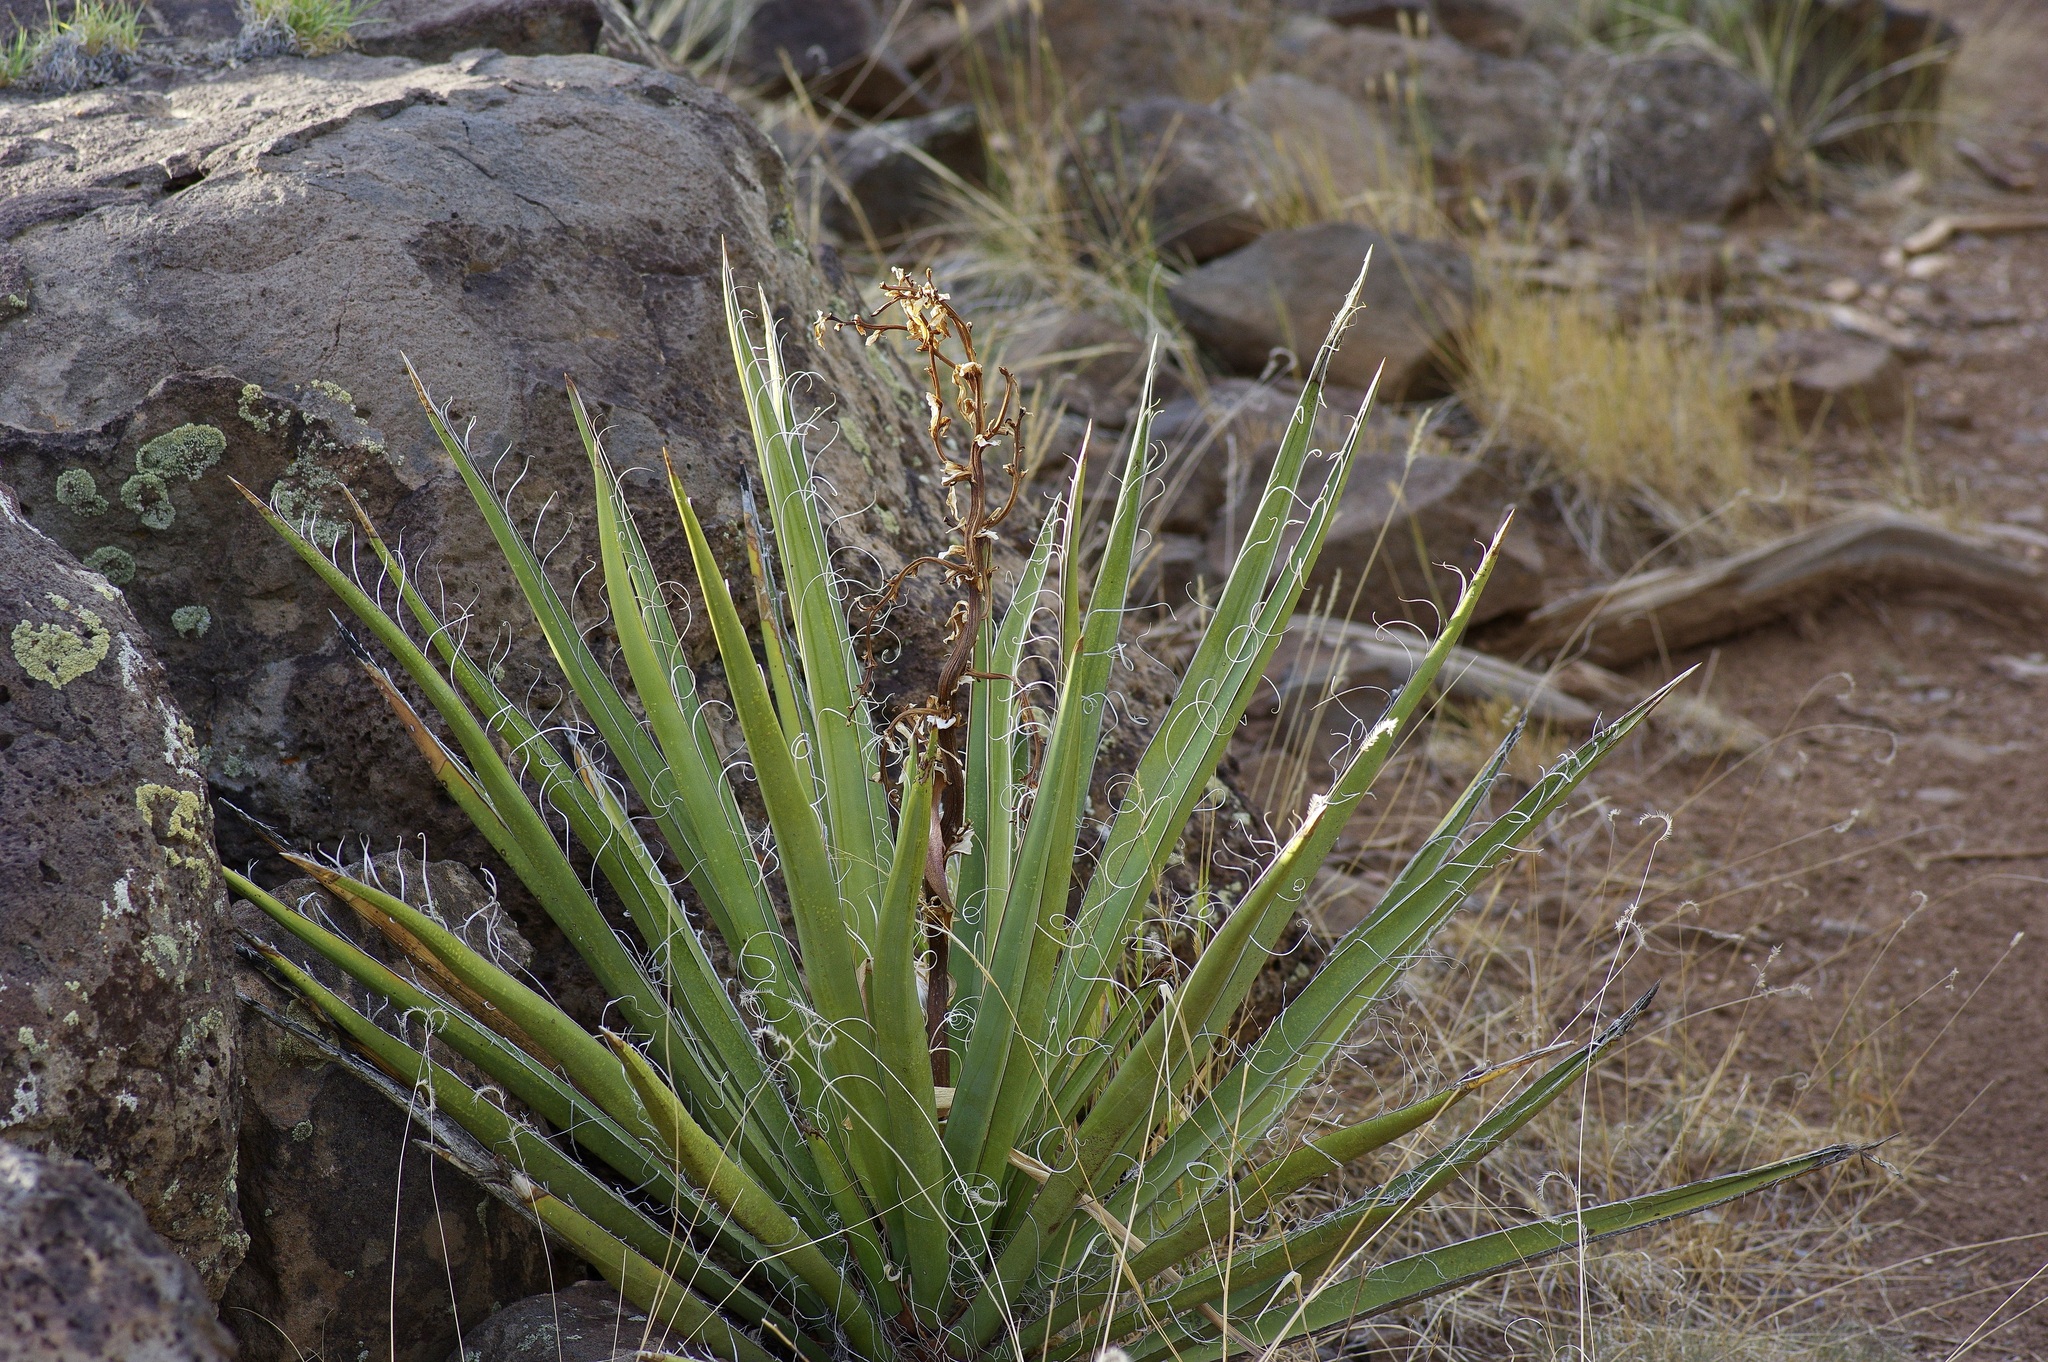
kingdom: Plantae
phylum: Tracheophyta
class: Liliopsida
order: Asparagales
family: Asparagaceae
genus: Yucca
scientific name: Yucca baccata
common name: Banana yucca
